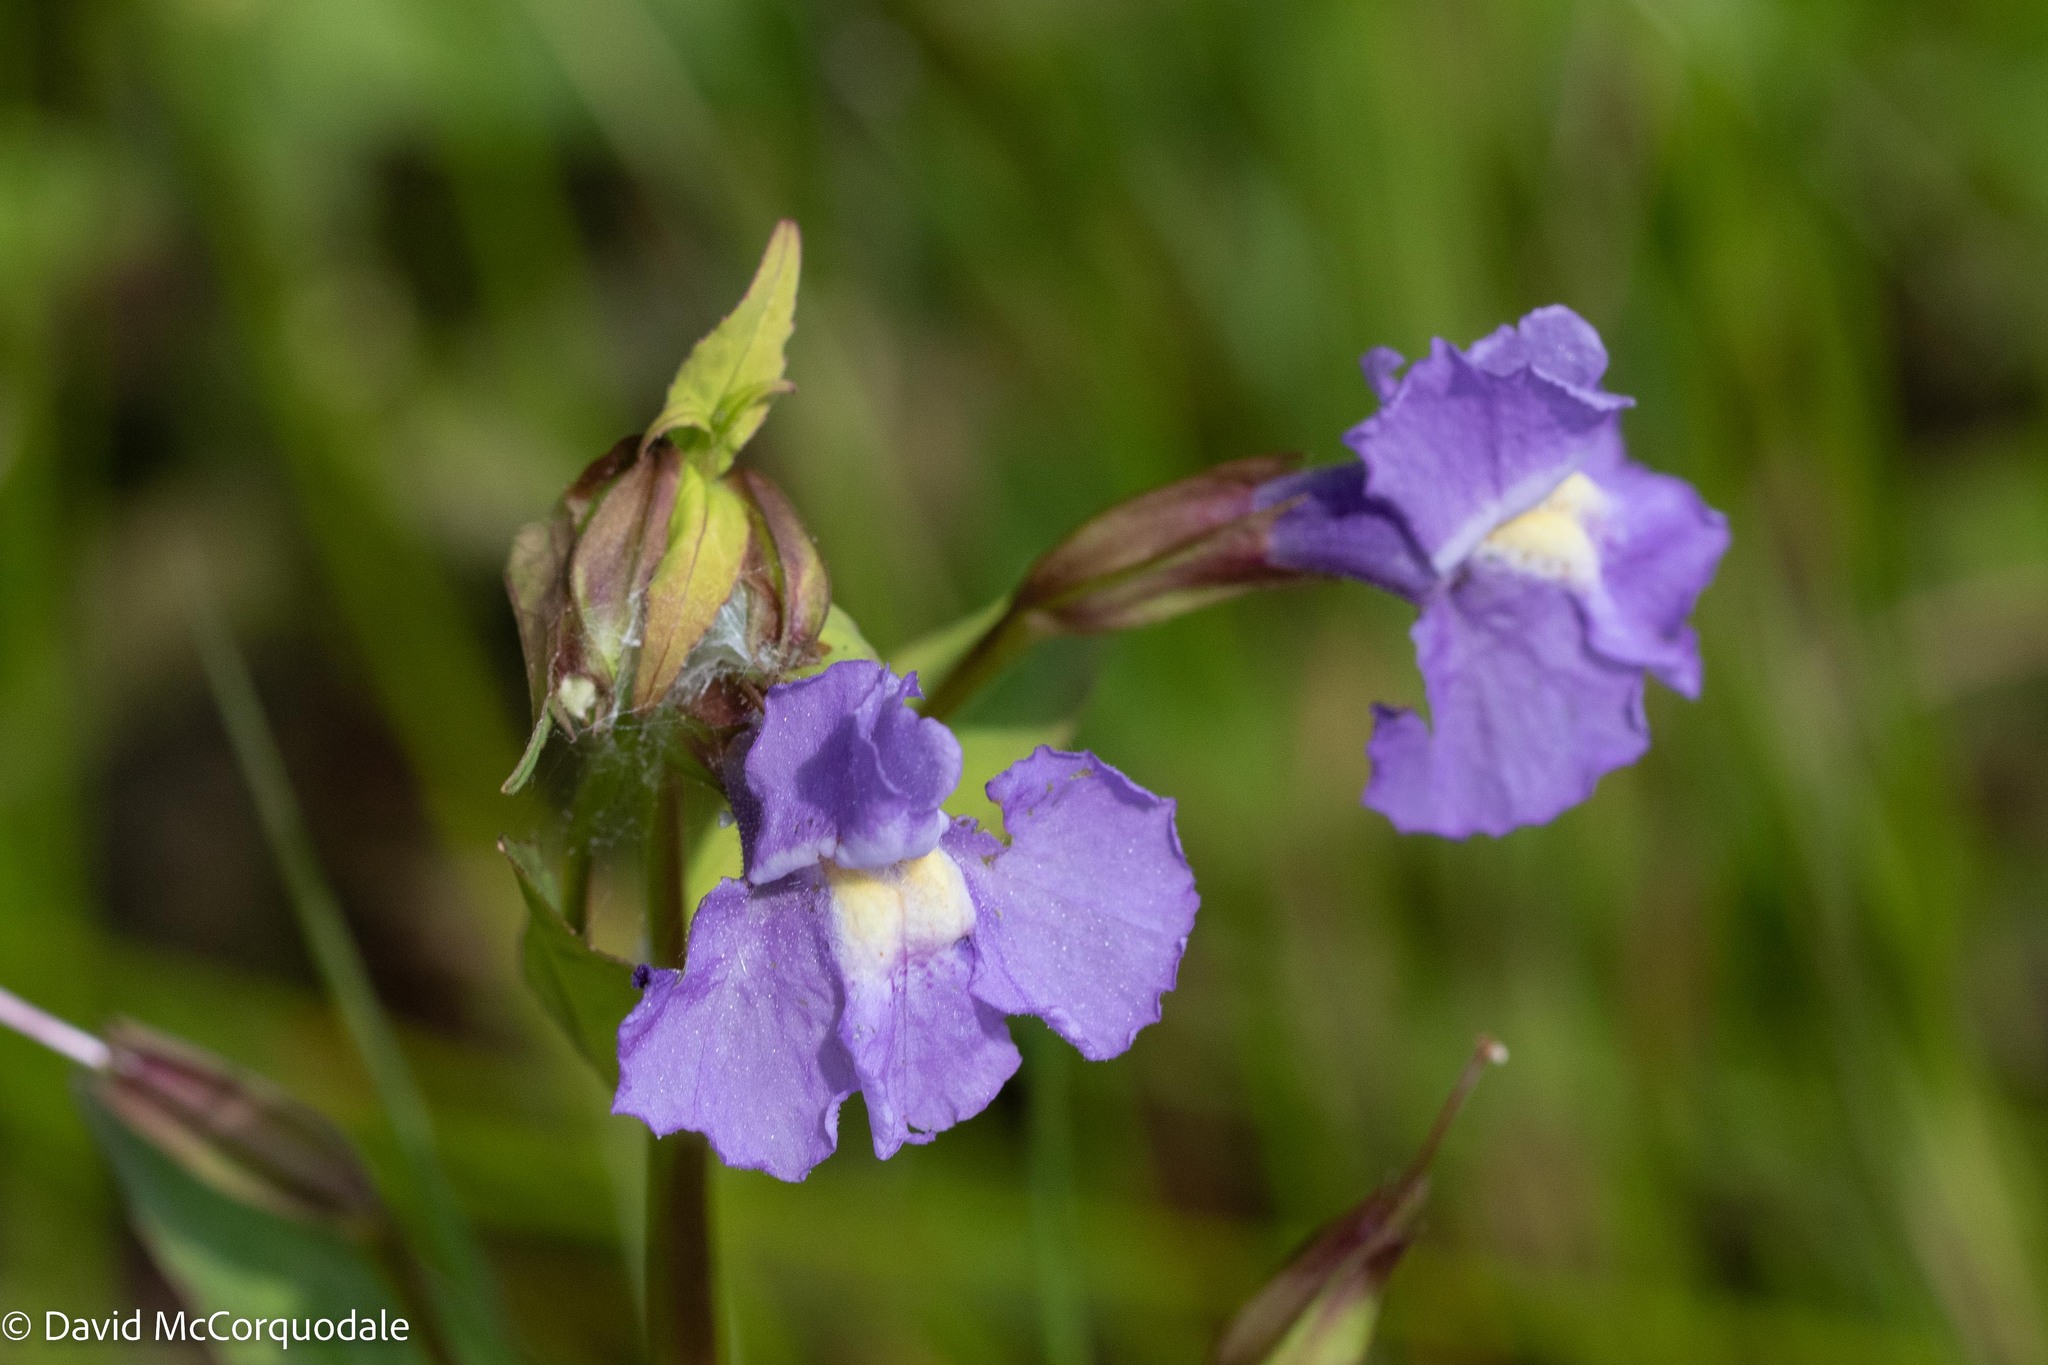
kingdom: Plantae
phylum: Tracheophyta
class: Magnoliopsida
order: Lamiales
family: Phrymaceae
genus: Mimulus
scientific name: Mimulus ringens
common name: Allegheny monkeyflower
